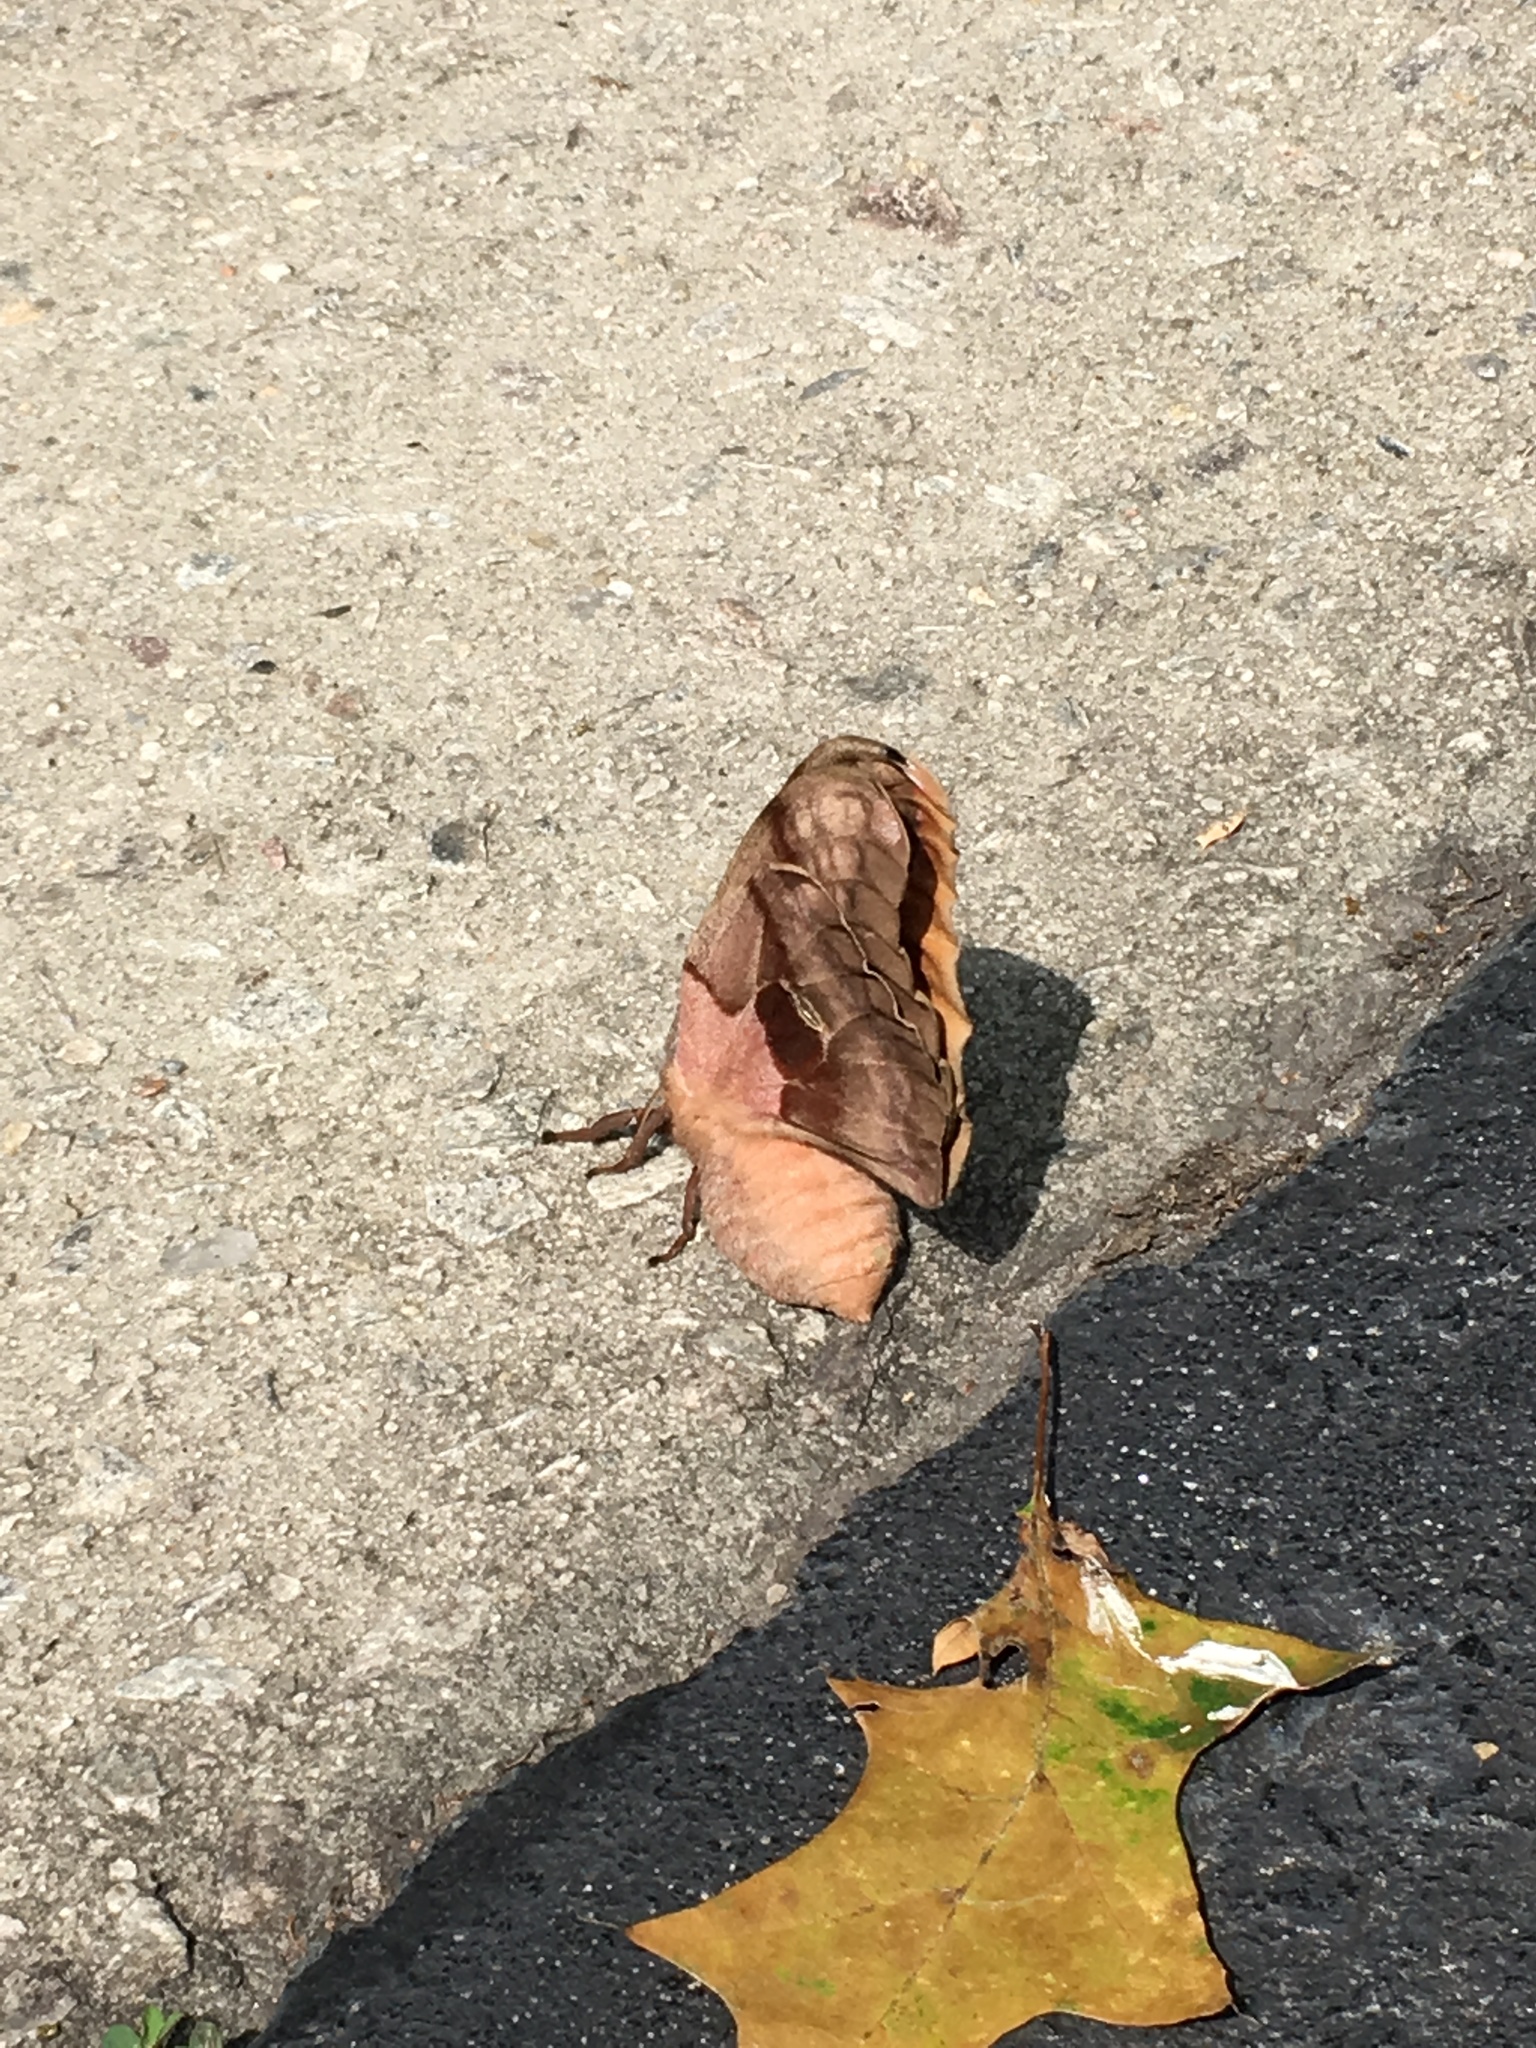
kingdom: Animalia
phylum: Arthropoda
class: Insecta
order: Lepidoptera
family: Saturniidae
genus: Antheraea
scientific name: Antheraea polyphemus
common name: Polyphemus moth
